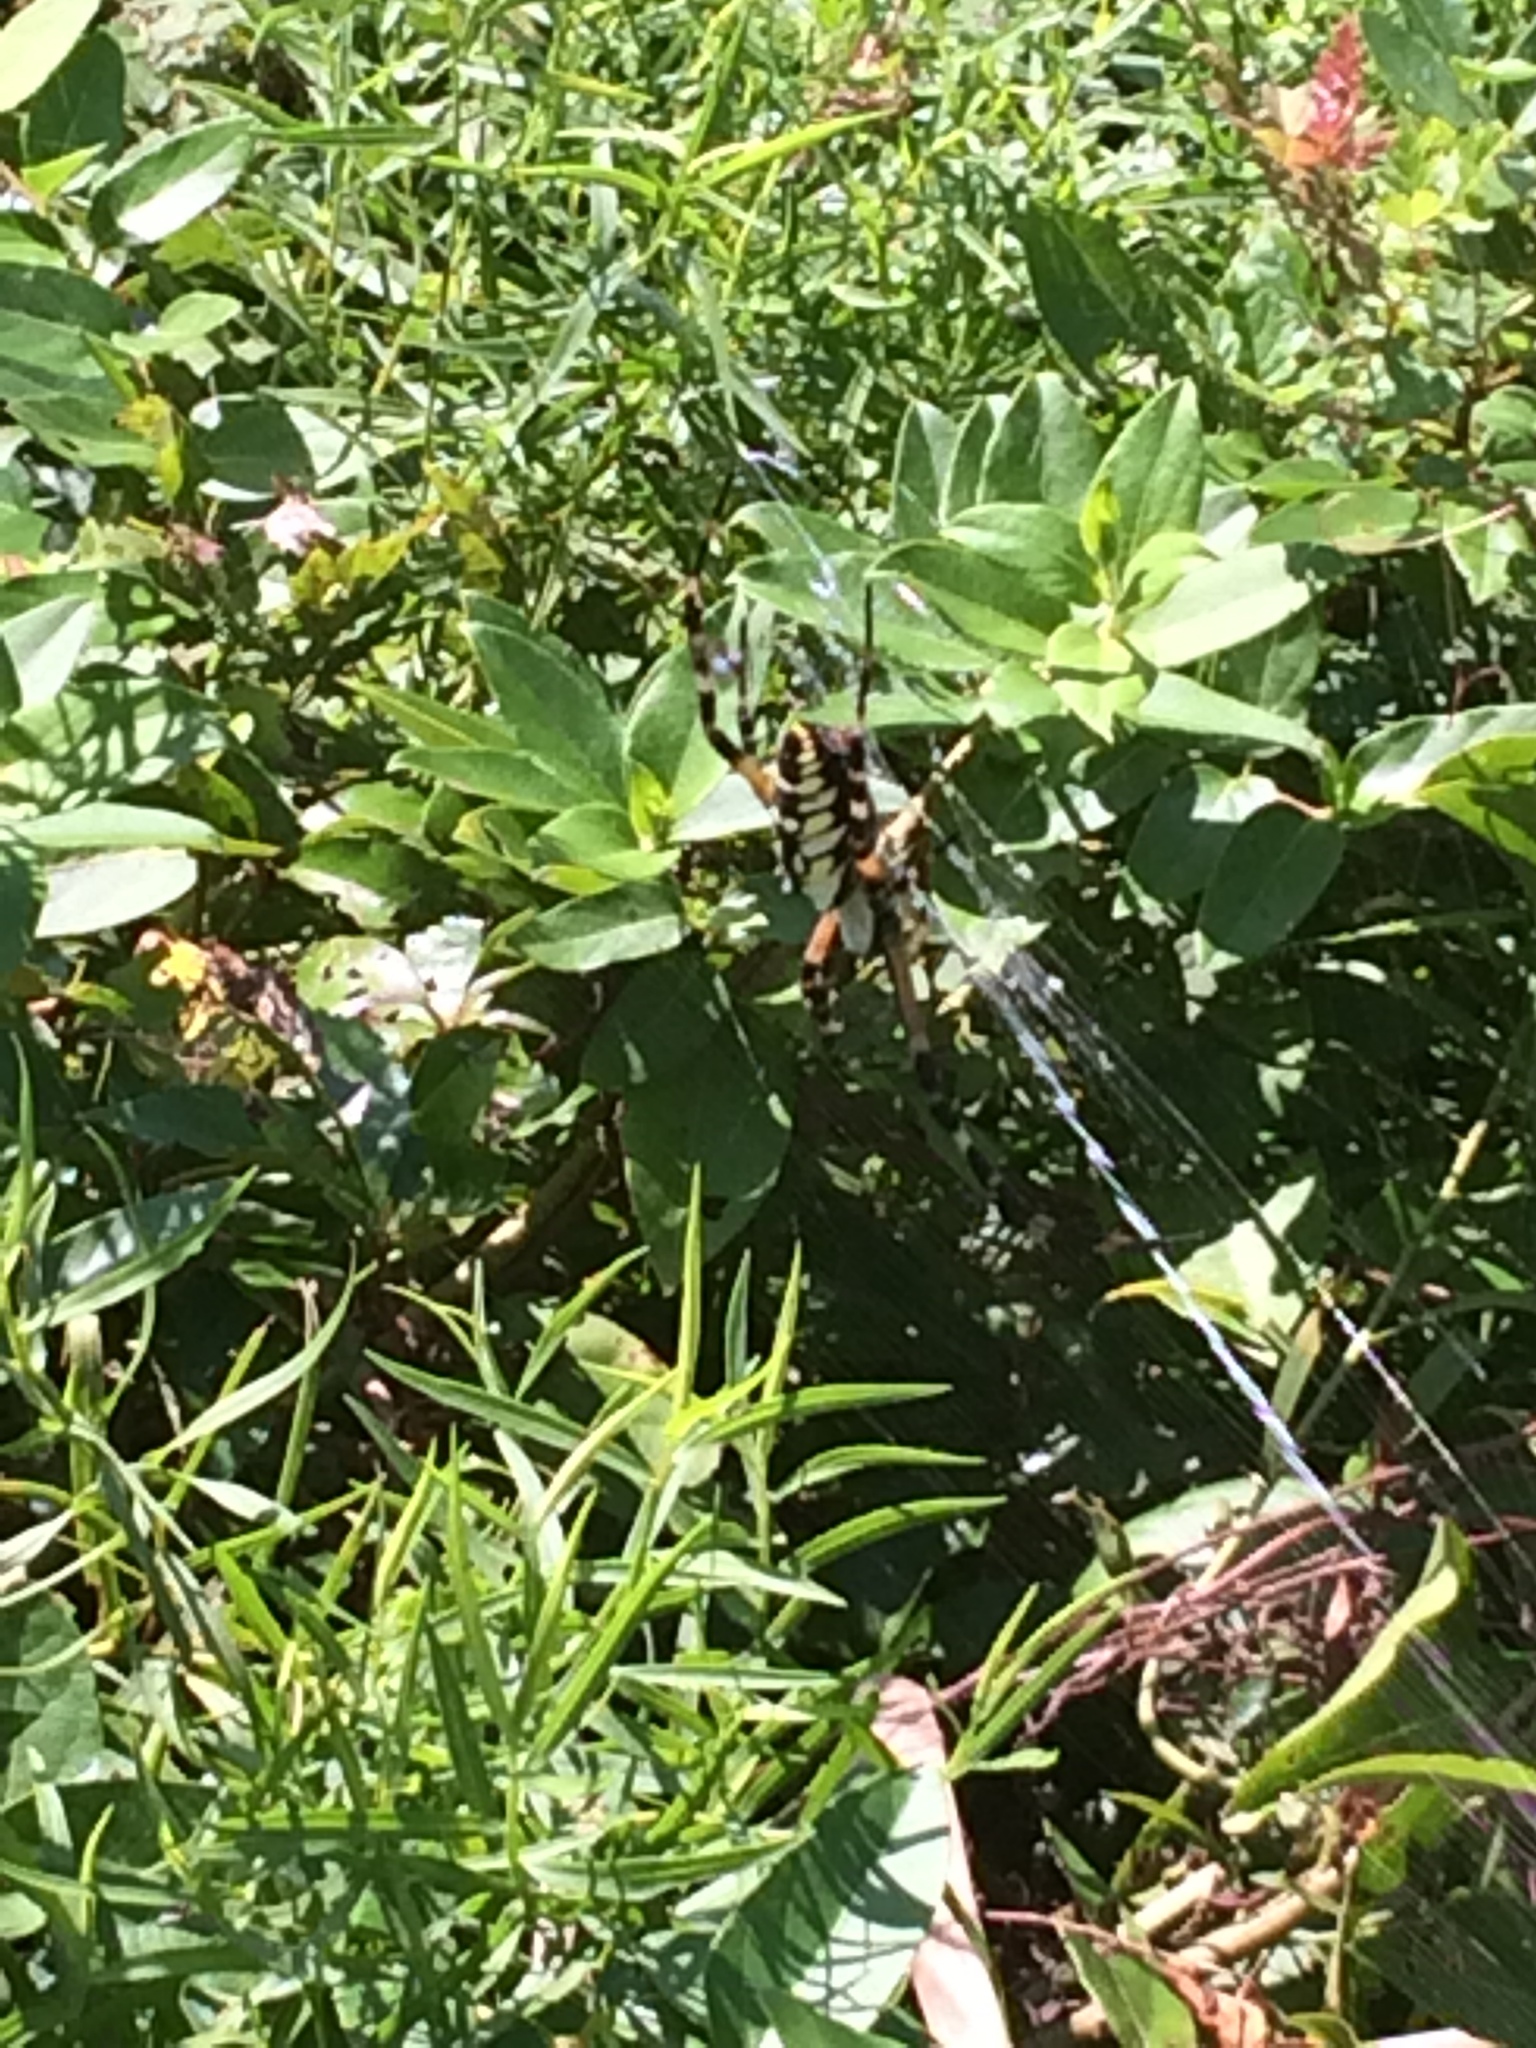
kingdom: Animalia
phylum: Arthropoda
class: Arachnida
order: Araneae
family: Araneidae
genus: Argiope
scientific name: Argiope aurantia
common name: Orb weavers
